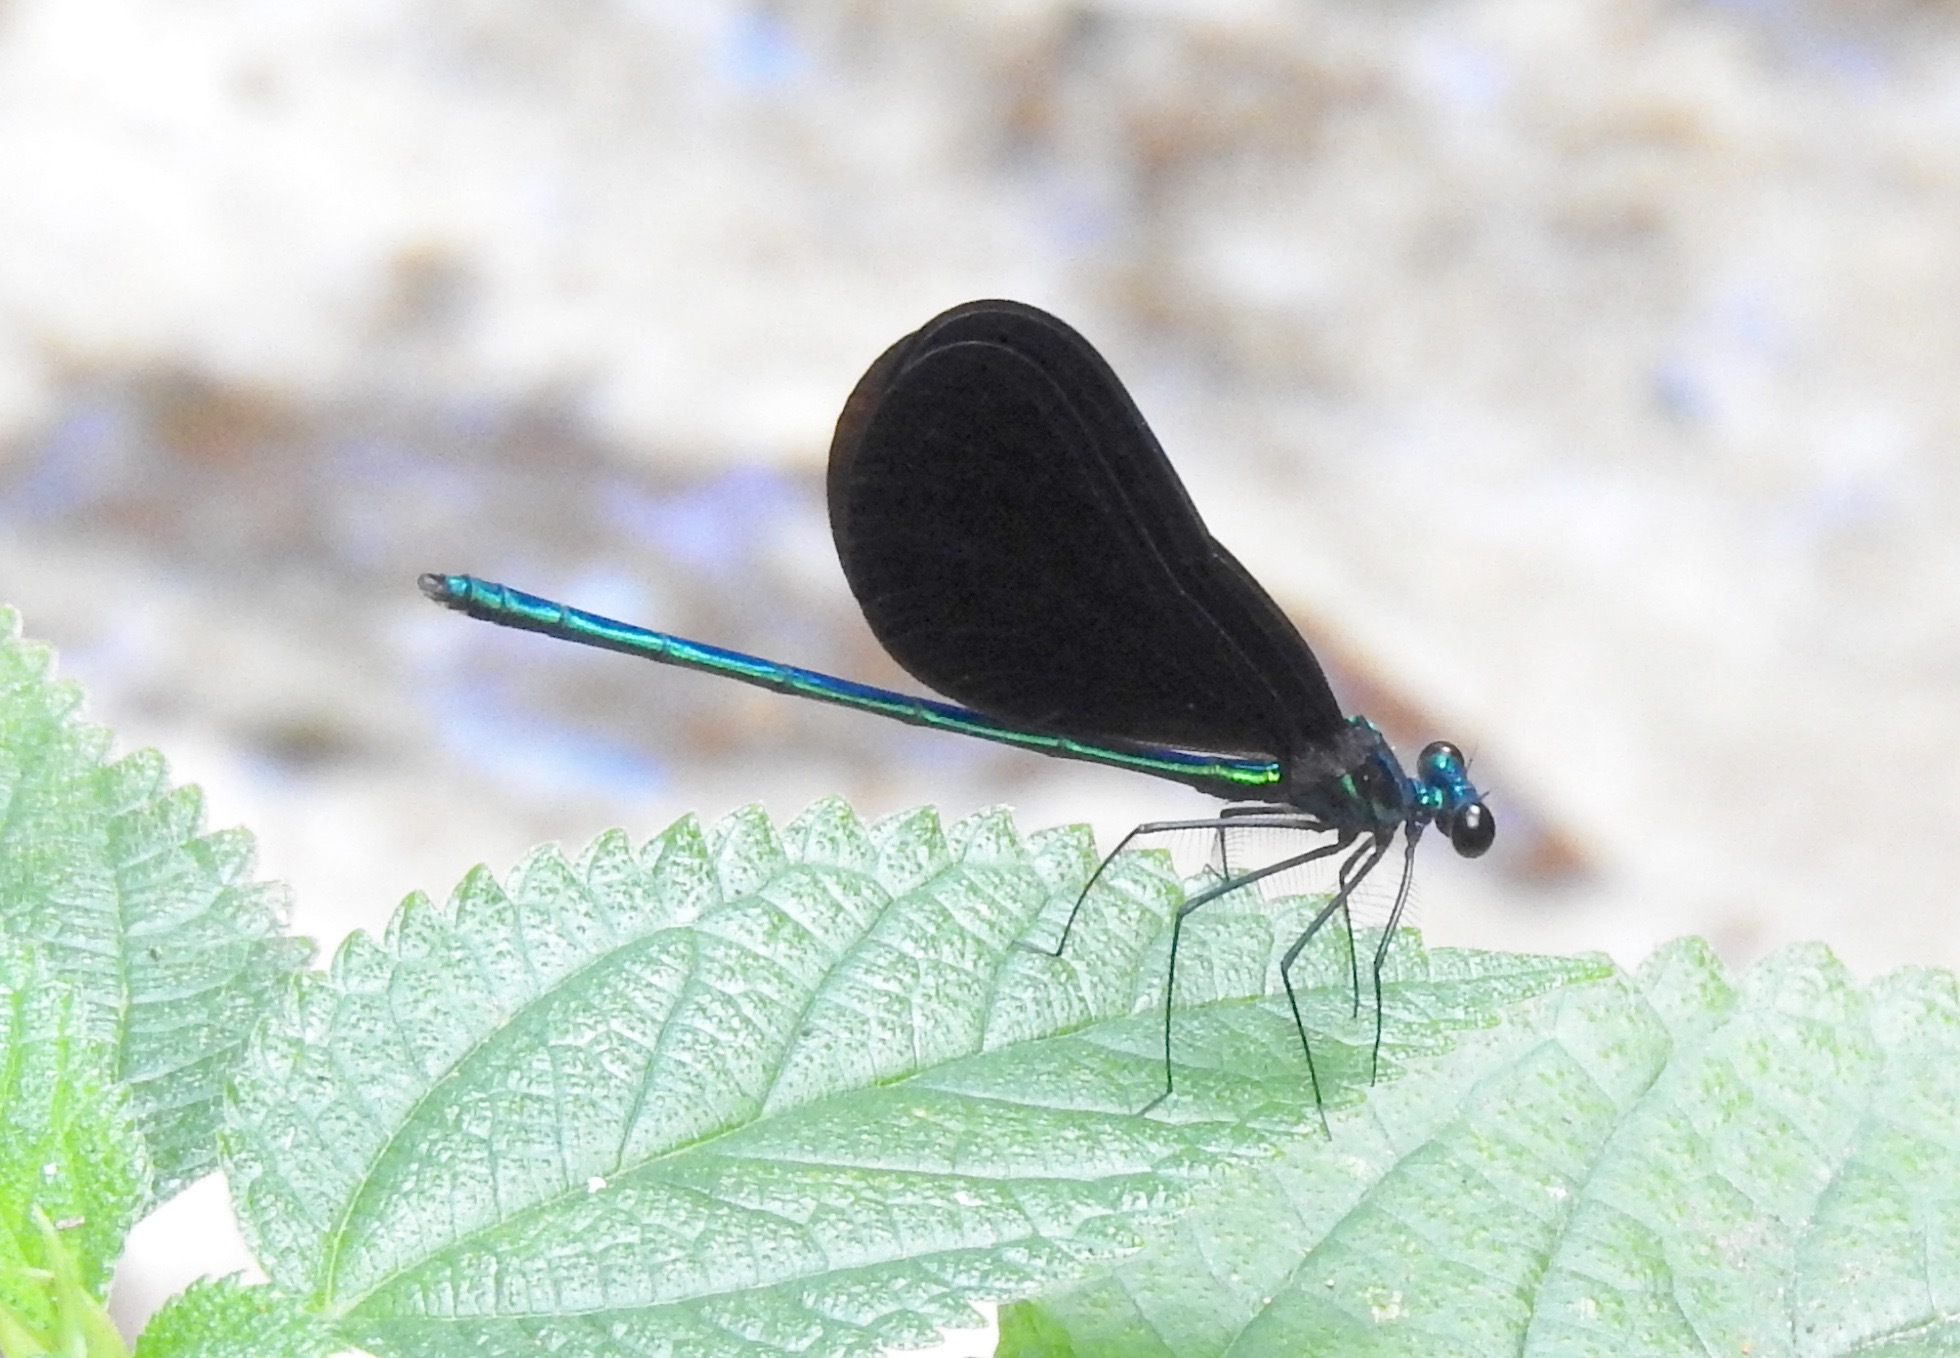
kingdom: Animalia
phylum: Arthropoda
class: Insecta
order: Odonata
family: Calopterygidae
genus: Calopteryx
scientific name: Calopteryx maculata
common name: Ebony jewelwing
